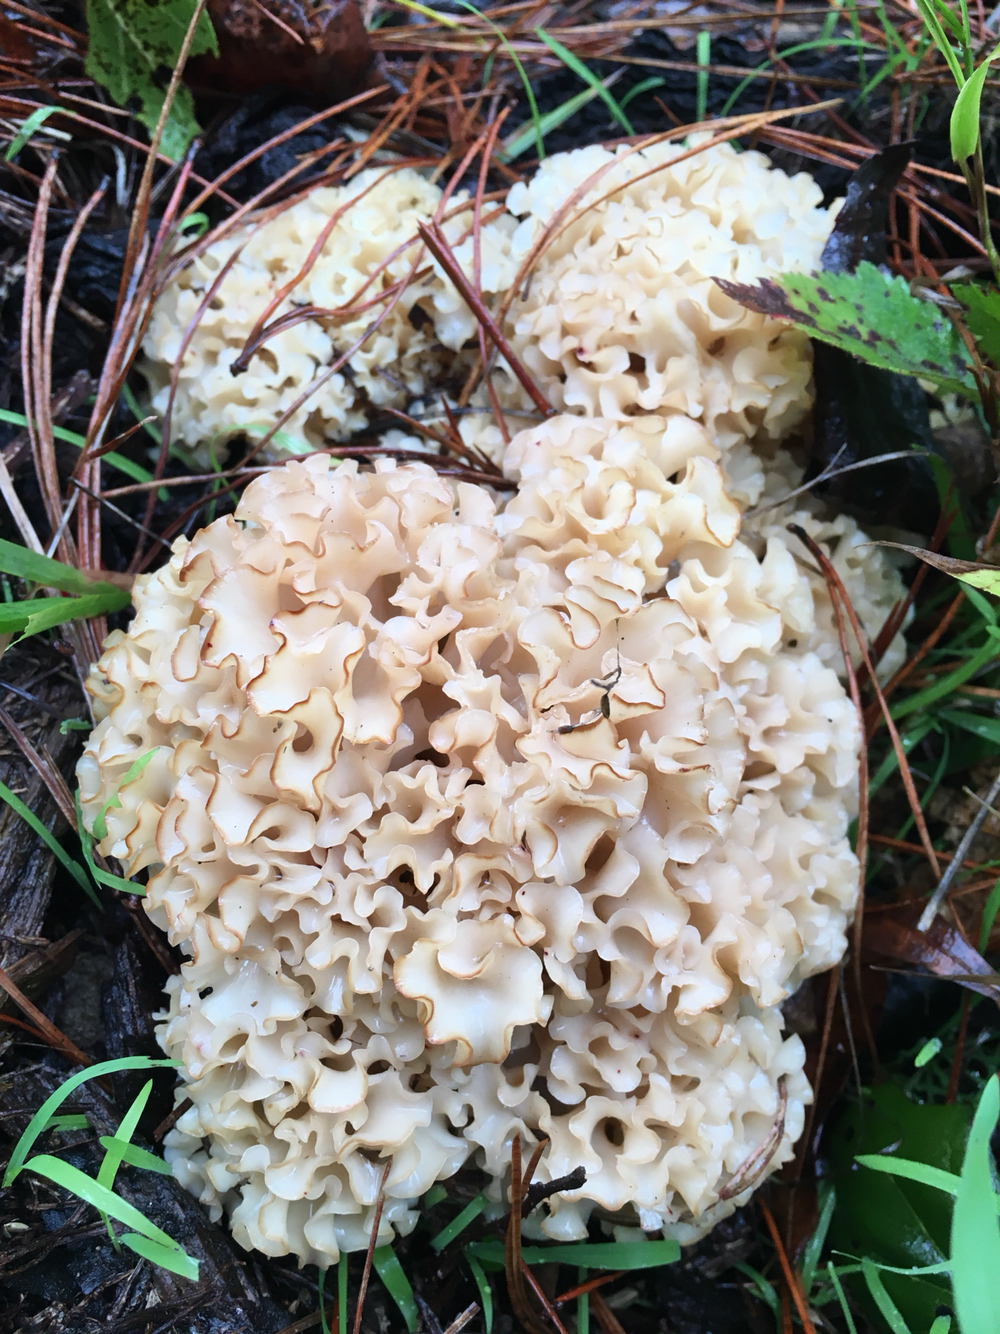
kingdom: Fungi
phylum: Basidiomycota
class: Agaricomycetes
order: Polyporales
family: Sparassidaceae
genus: Sparassis
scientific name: Sparassis radicata
